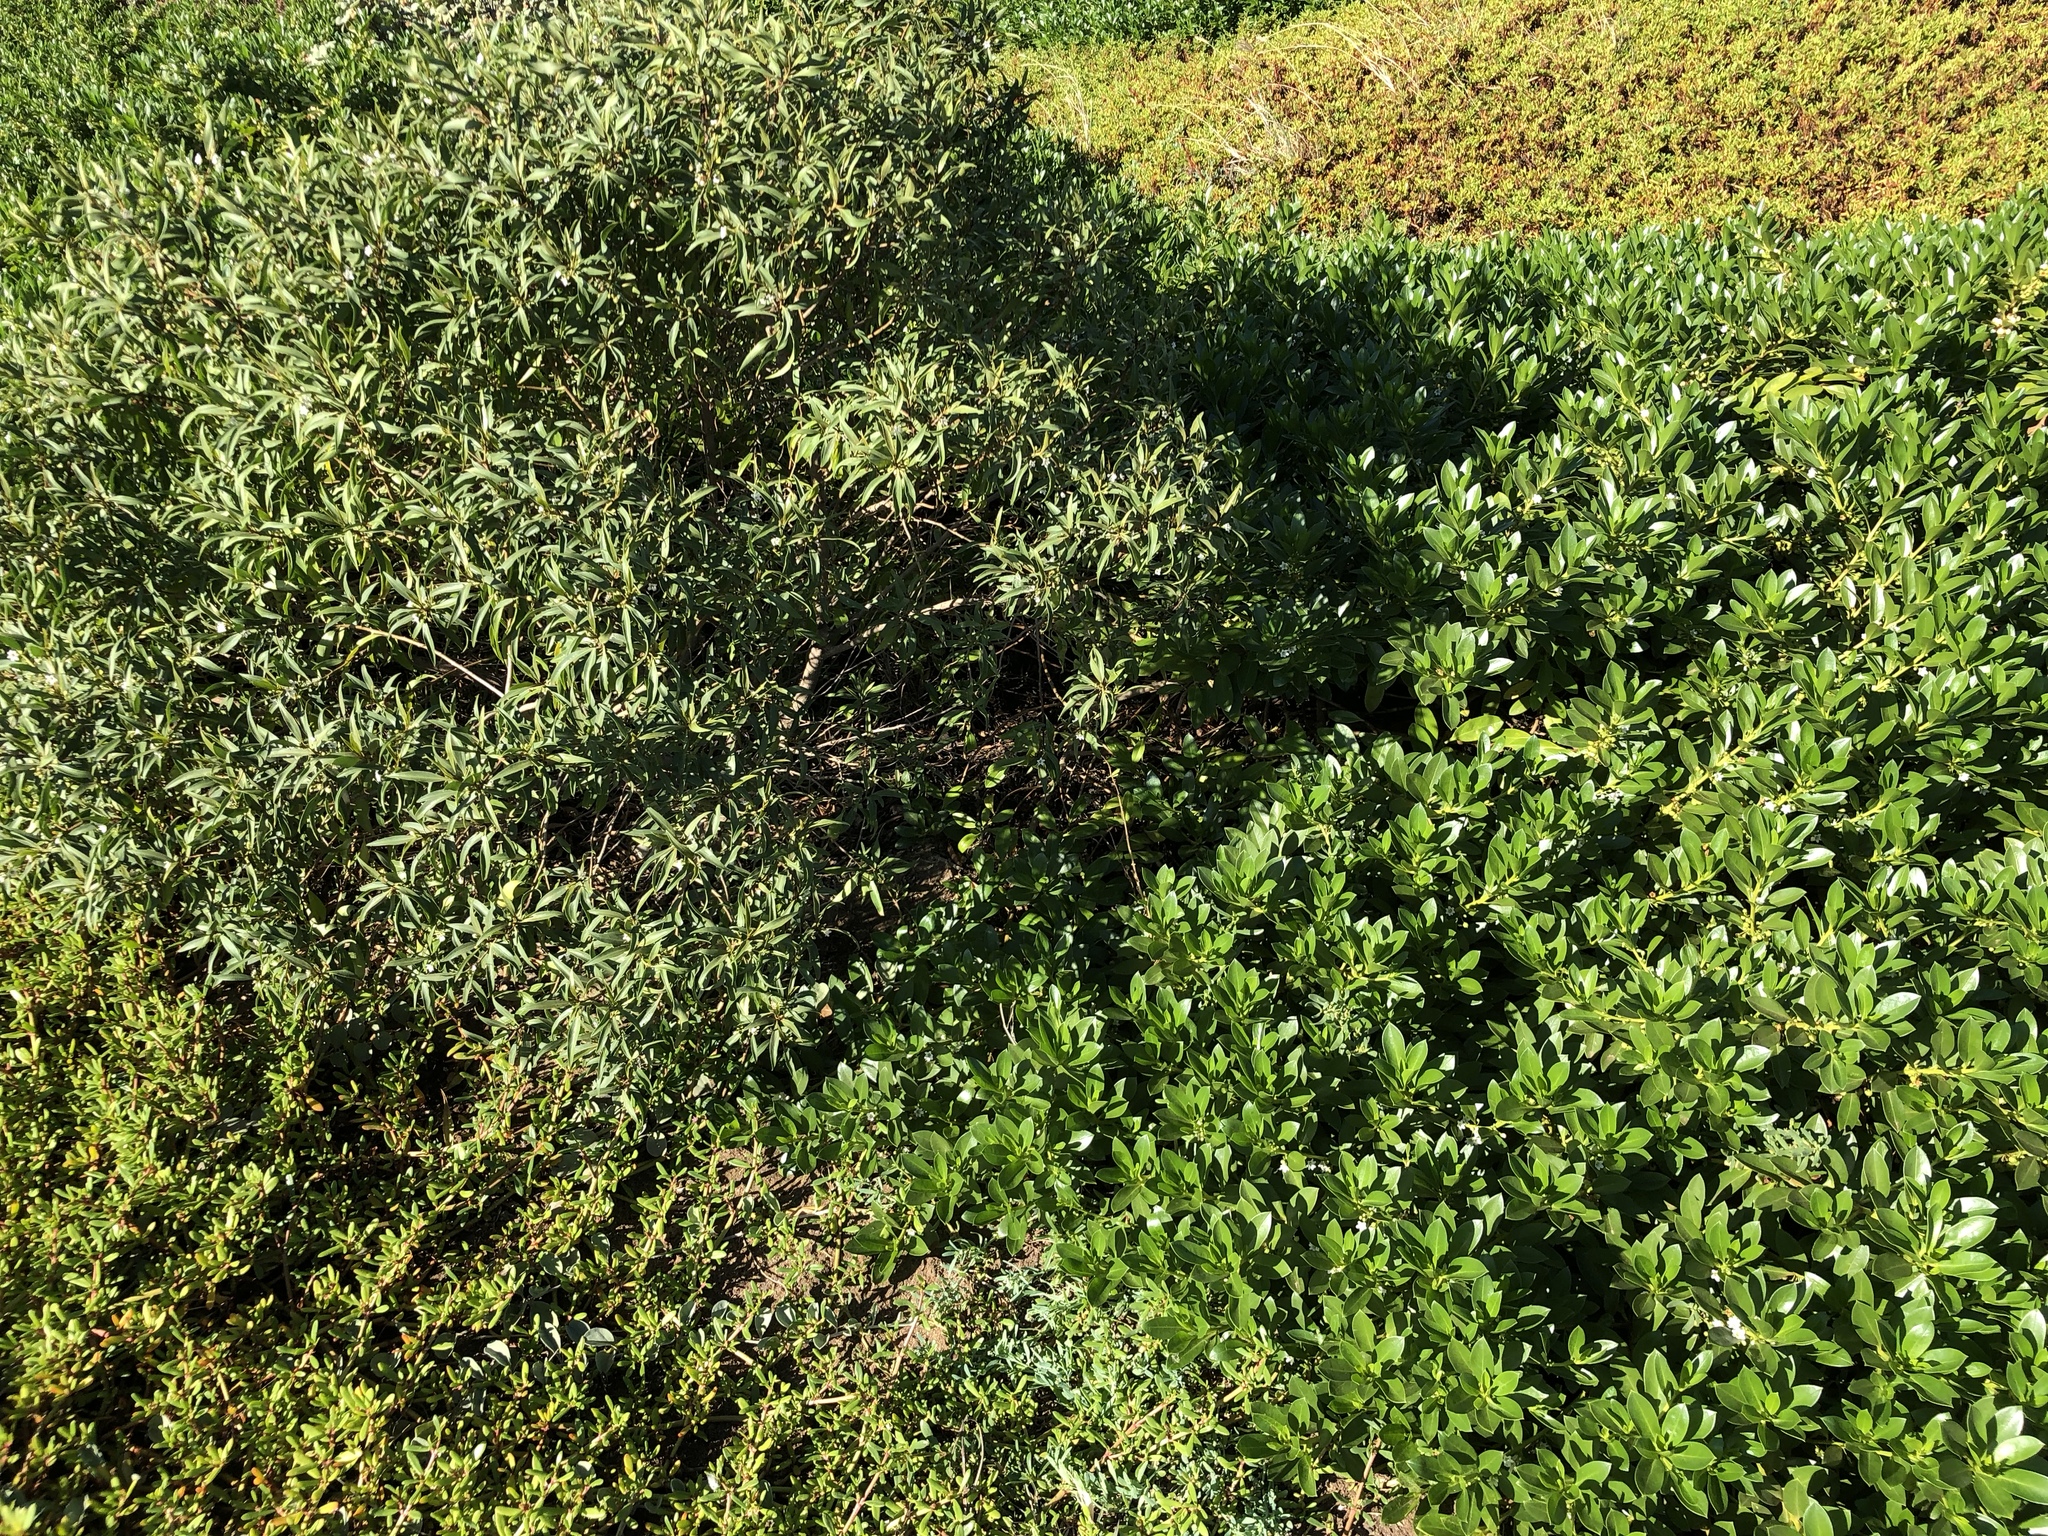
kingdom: Plantae
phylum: Tracheophyta
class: Magnoliopsida
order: Lamiales
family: Scrophulariaceae
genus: Myoporum
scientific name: Myoporum sandwicense
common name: Bastard-sandalwood
